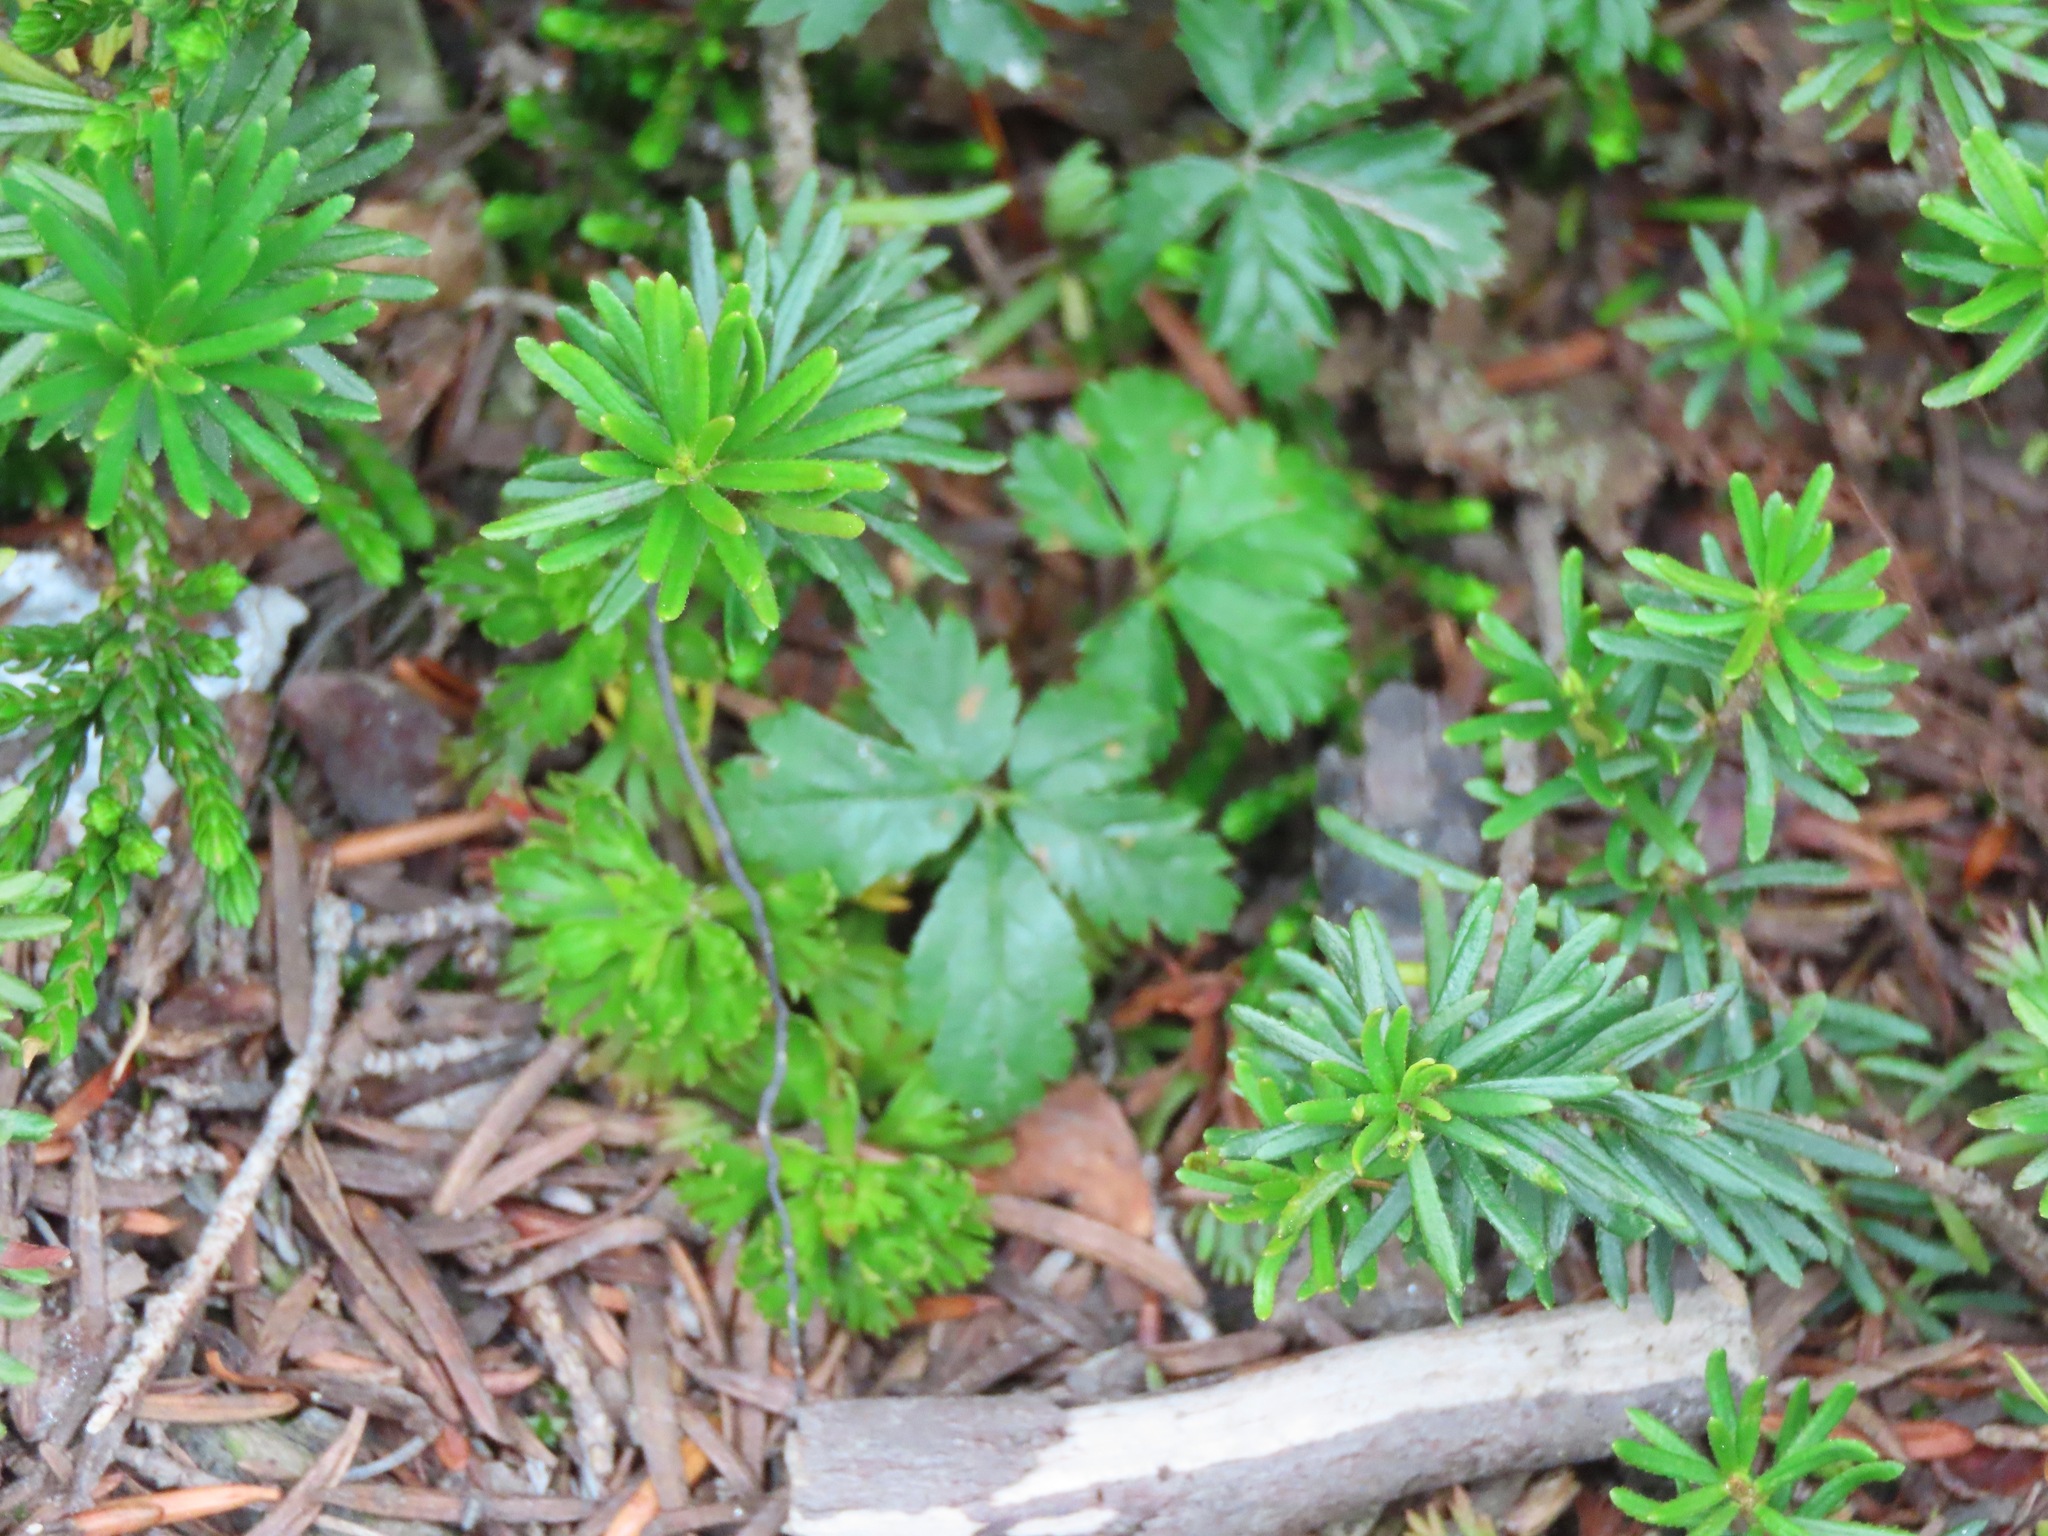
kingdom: Plantae
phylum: Tracheophyta
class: Magnoliopsida
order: Rosales
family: Rosaceae
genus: Rubus
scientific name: Rubus pedatus
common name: Creeping raspberry
